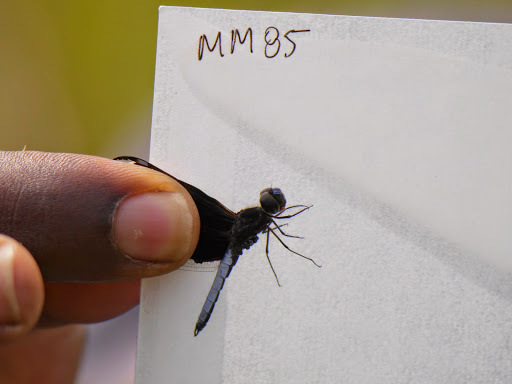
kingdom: Animalia
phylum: Arthropoda
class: Insecta
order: Odonata
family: Libellulidae
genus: Palpopleura
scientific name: Palpopleura lucia
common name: Lucia widow
